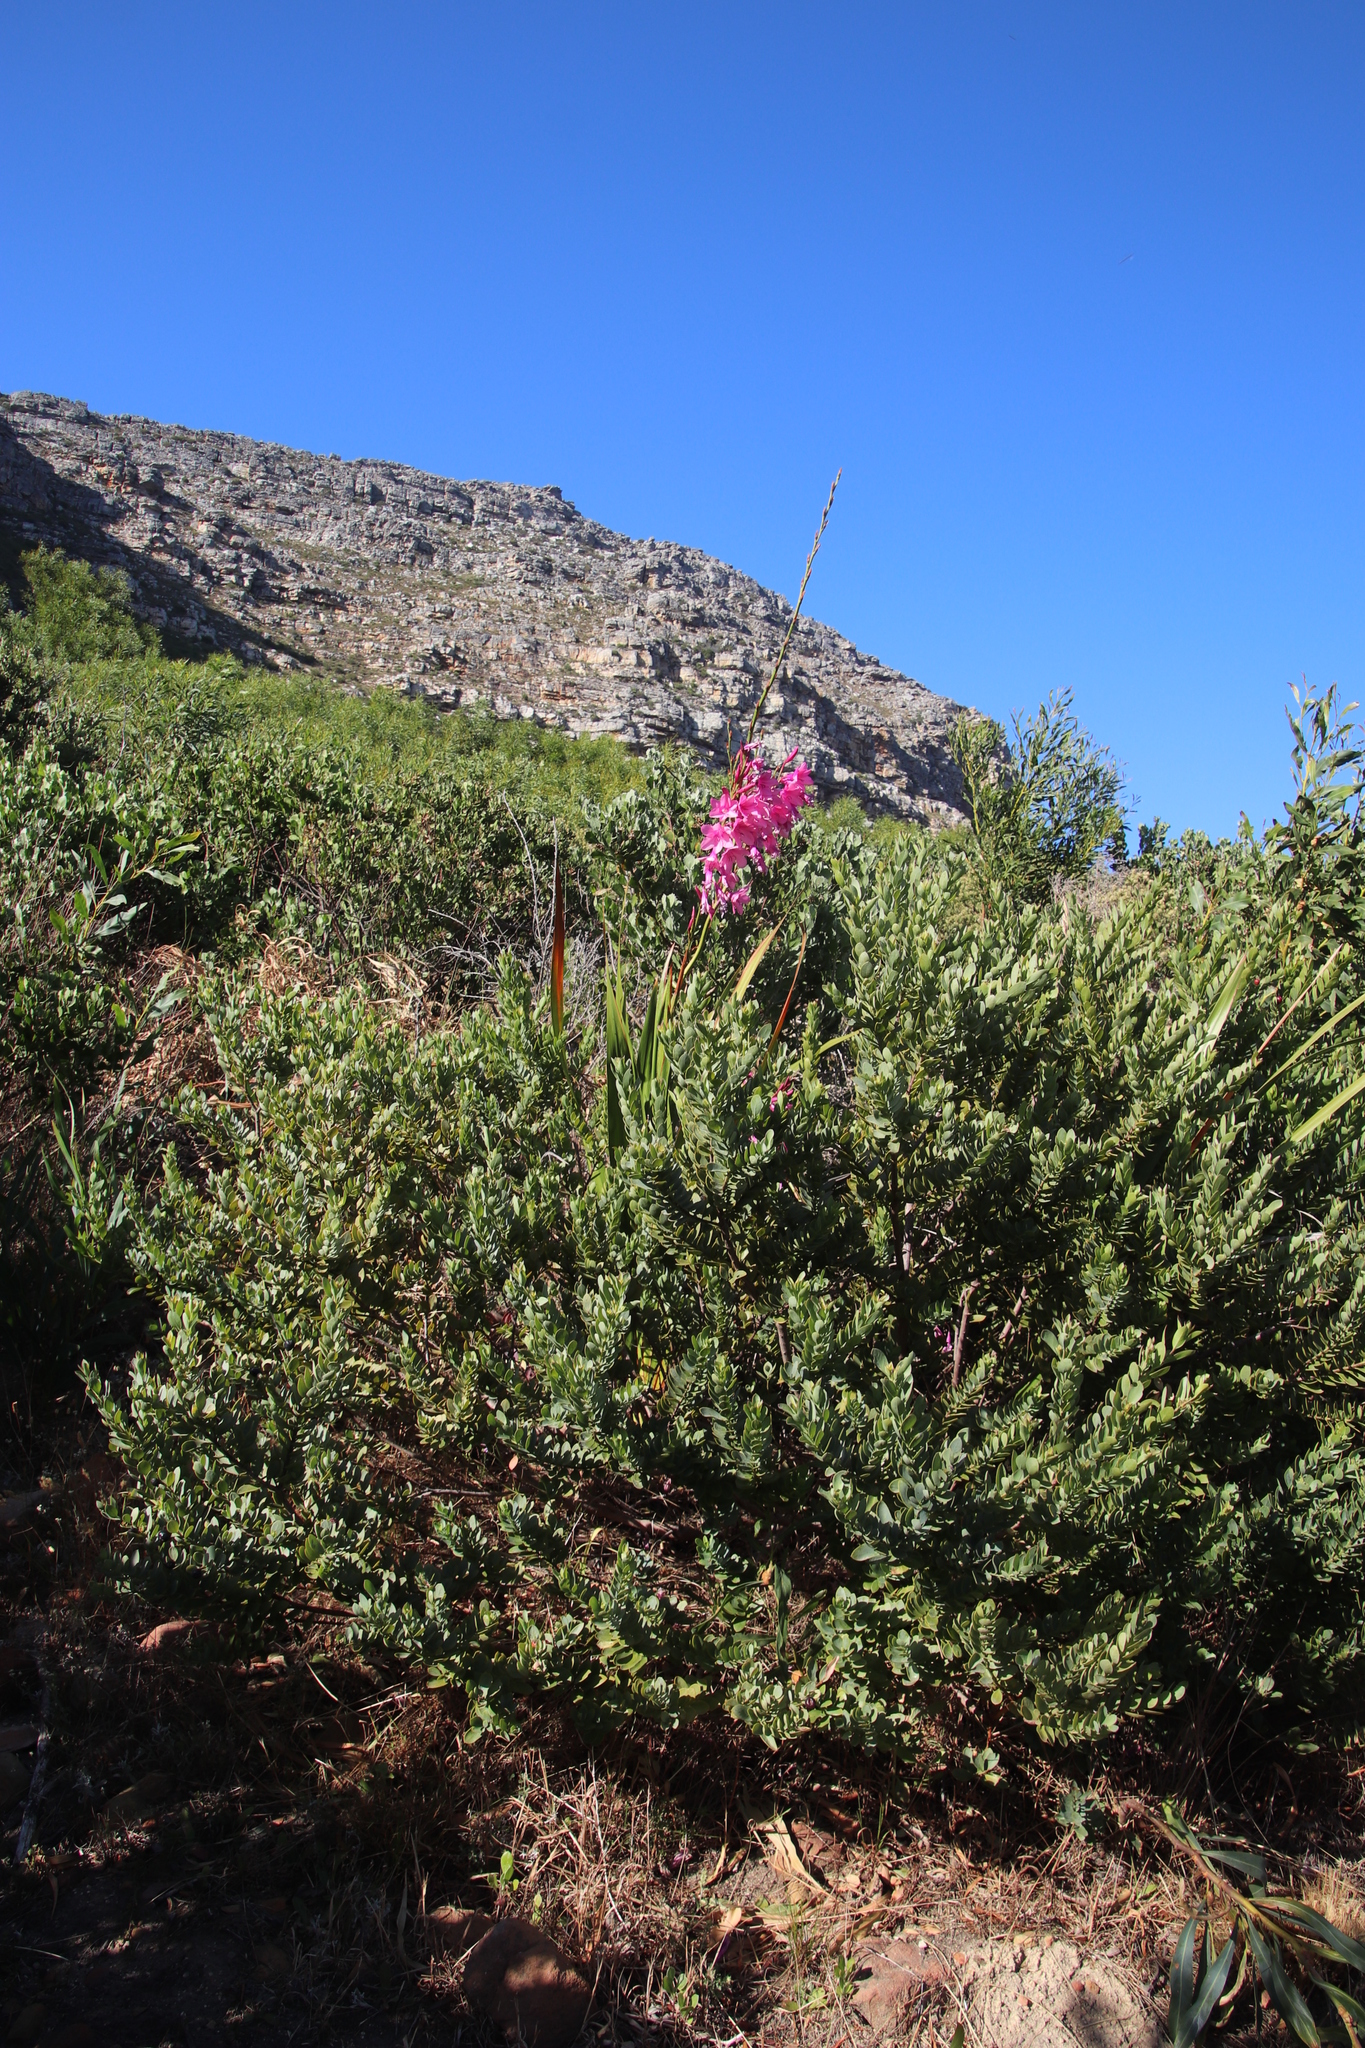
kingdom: Plantae
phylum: Tracheophyta
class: Liliopsida
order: Asparagales
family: Iridaceae
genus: Watsonia
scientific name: Watsonia borbonica
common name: Bugle-lily
